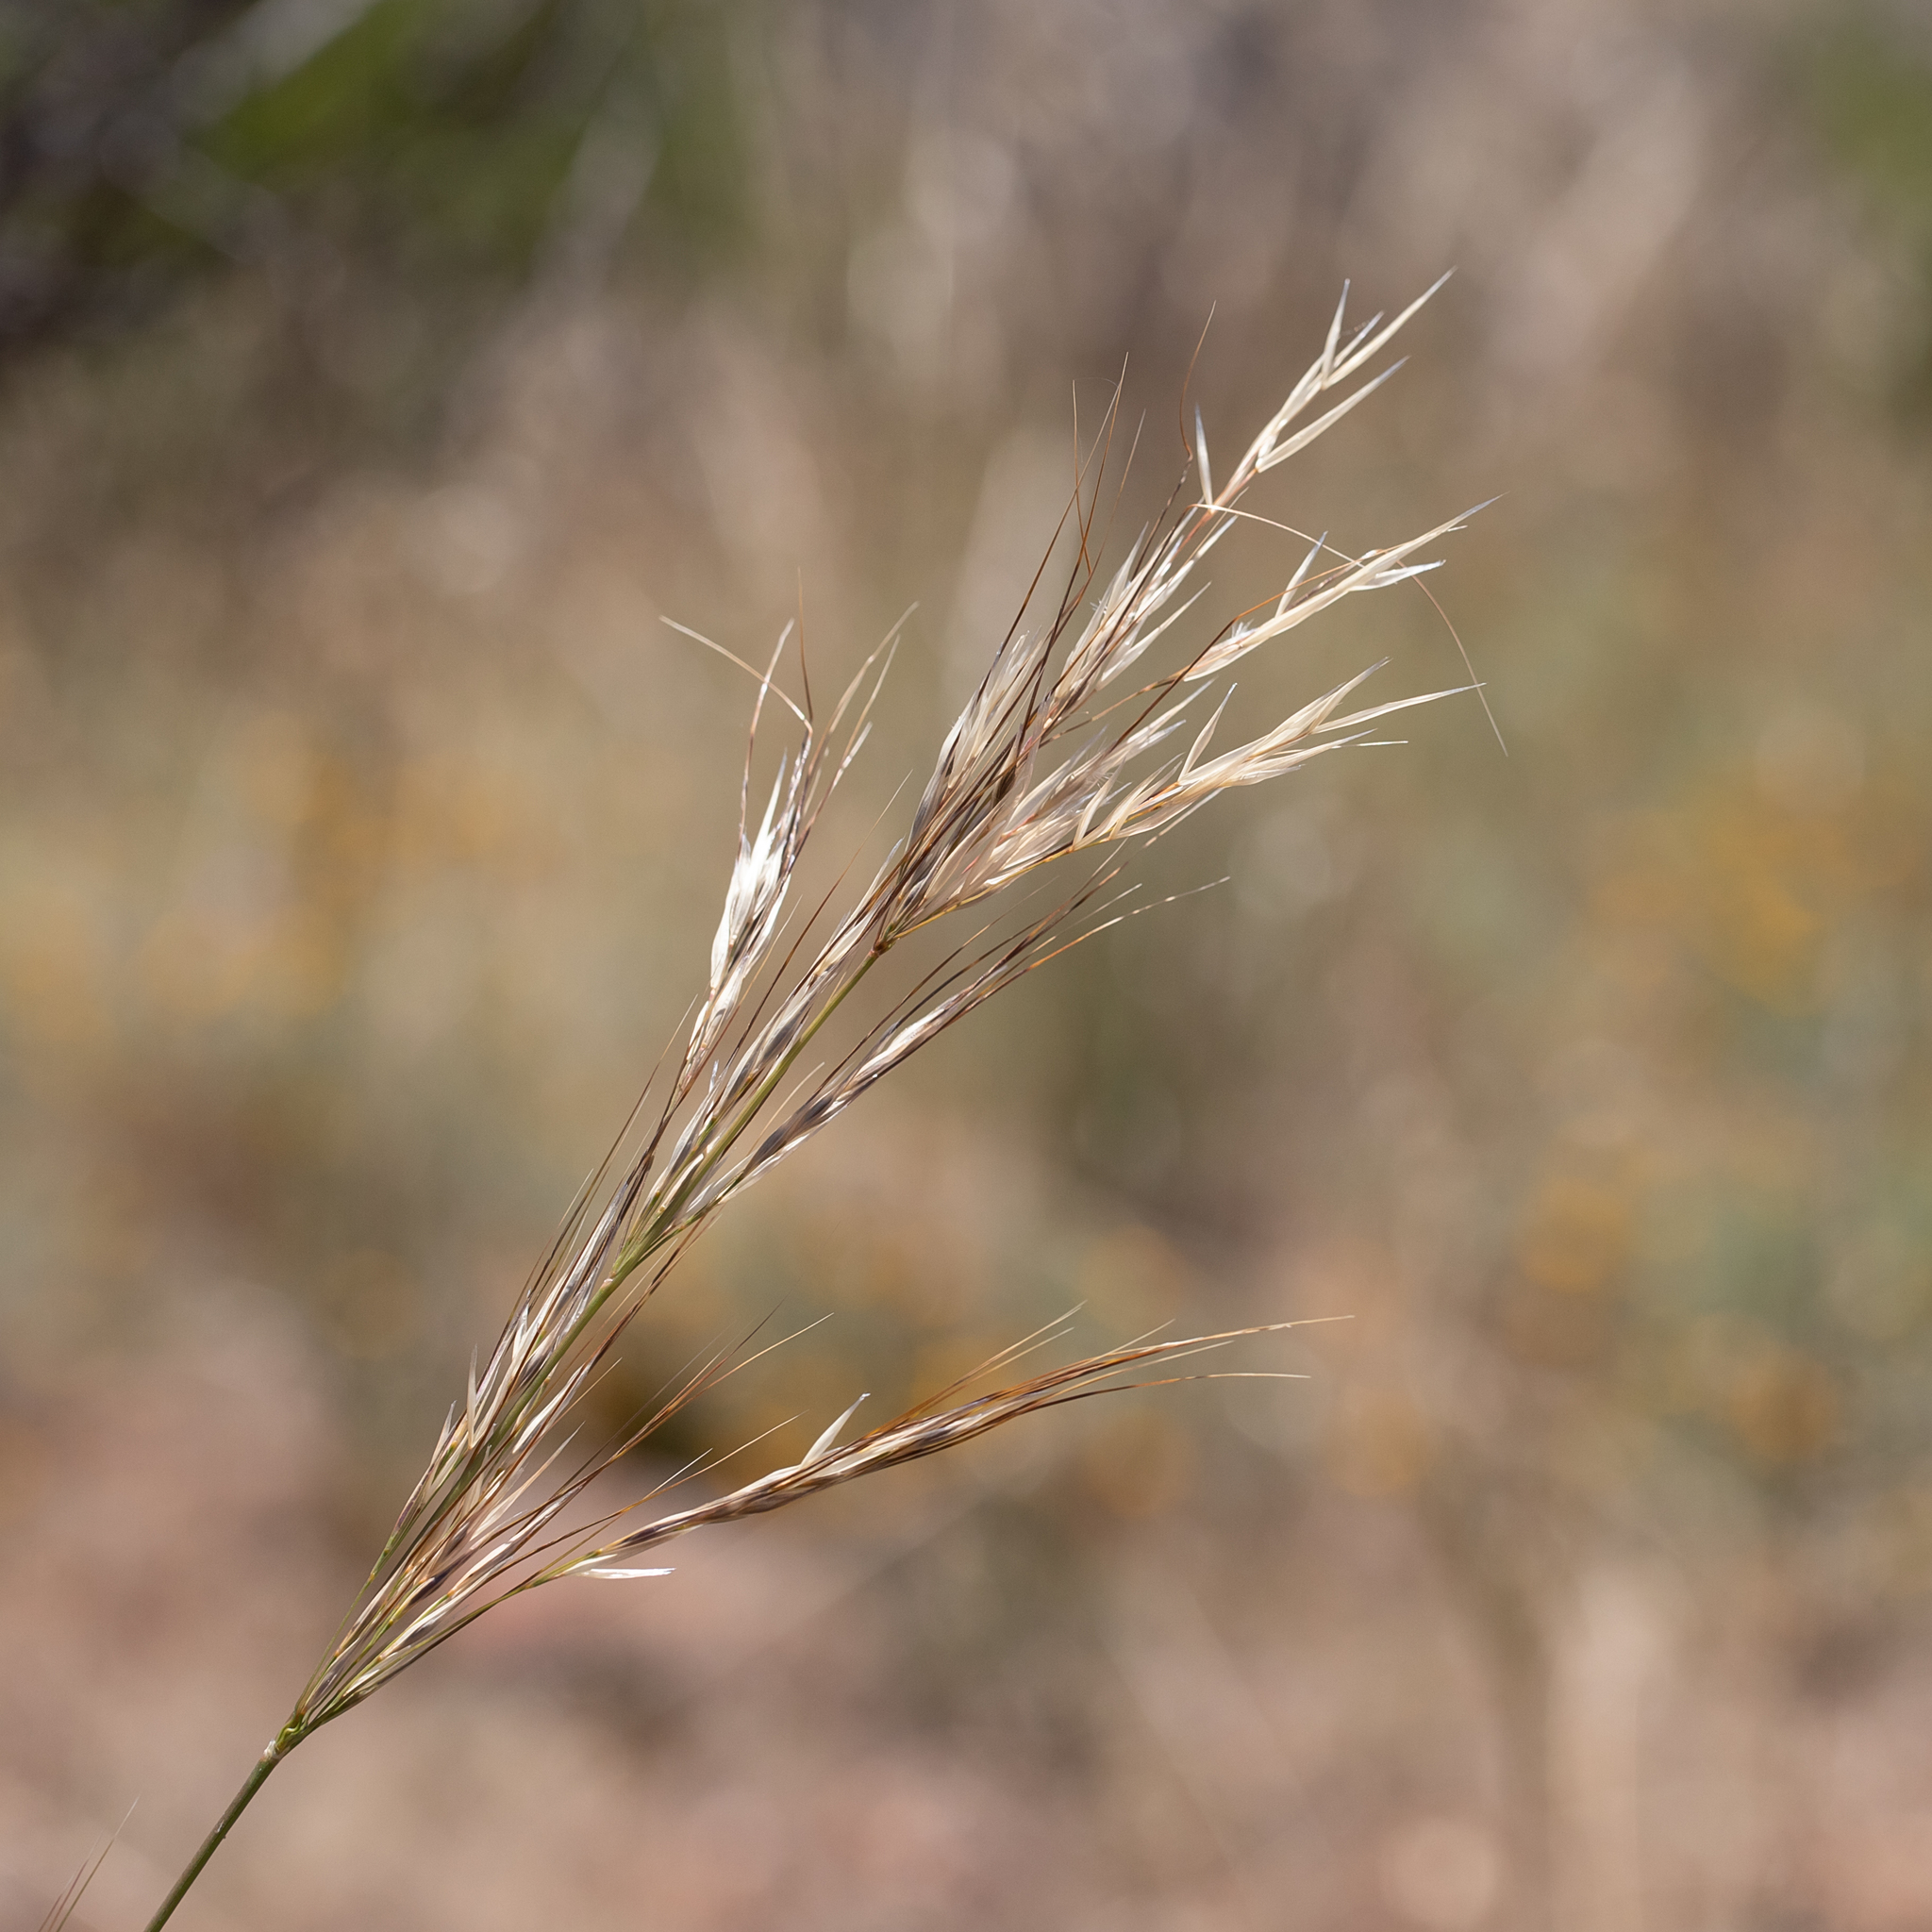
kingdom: Plantae
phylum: Tracheophyta
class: Liliopsida
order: Poales
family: Poaceae
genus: Austrostipa
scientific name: Austrostipa blackii
